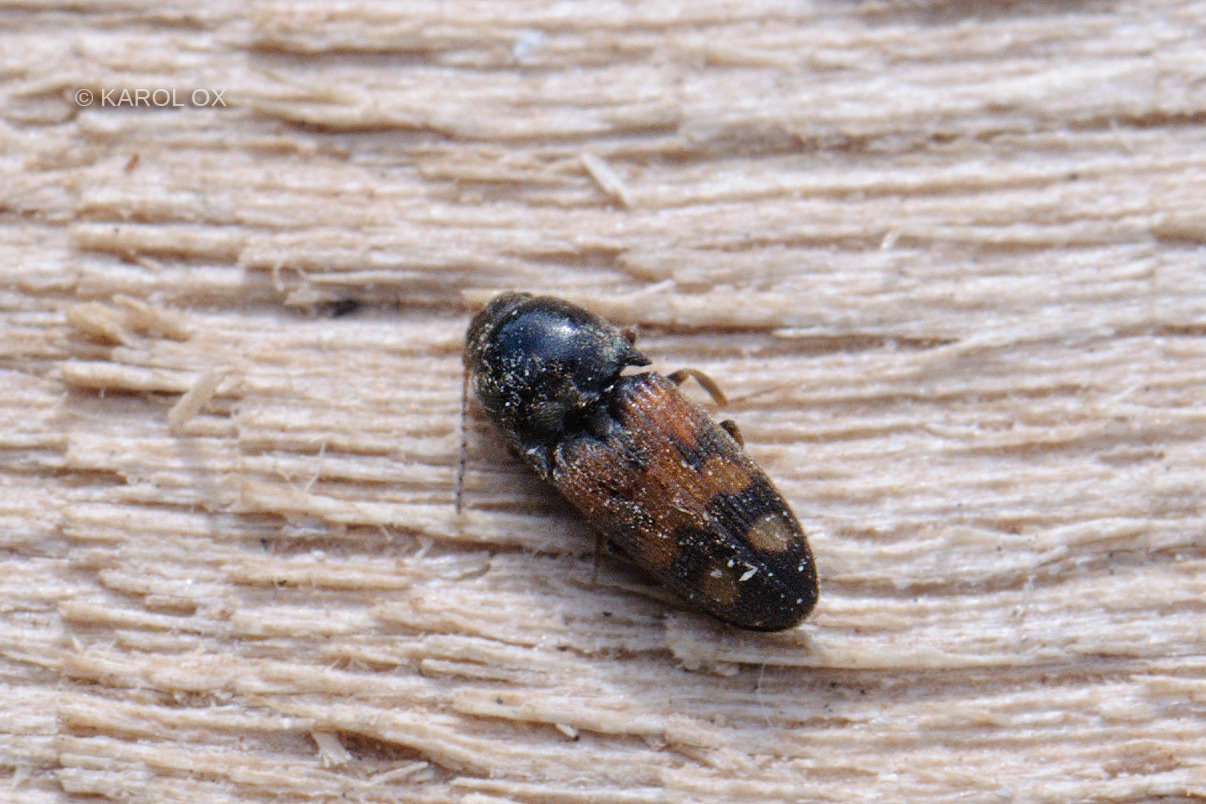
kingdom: Animalia
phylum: Arthropoda
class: Insecta
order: Coleoptera
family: Elateridae
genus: Drasterius
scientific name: Drasterius bimaculatus
